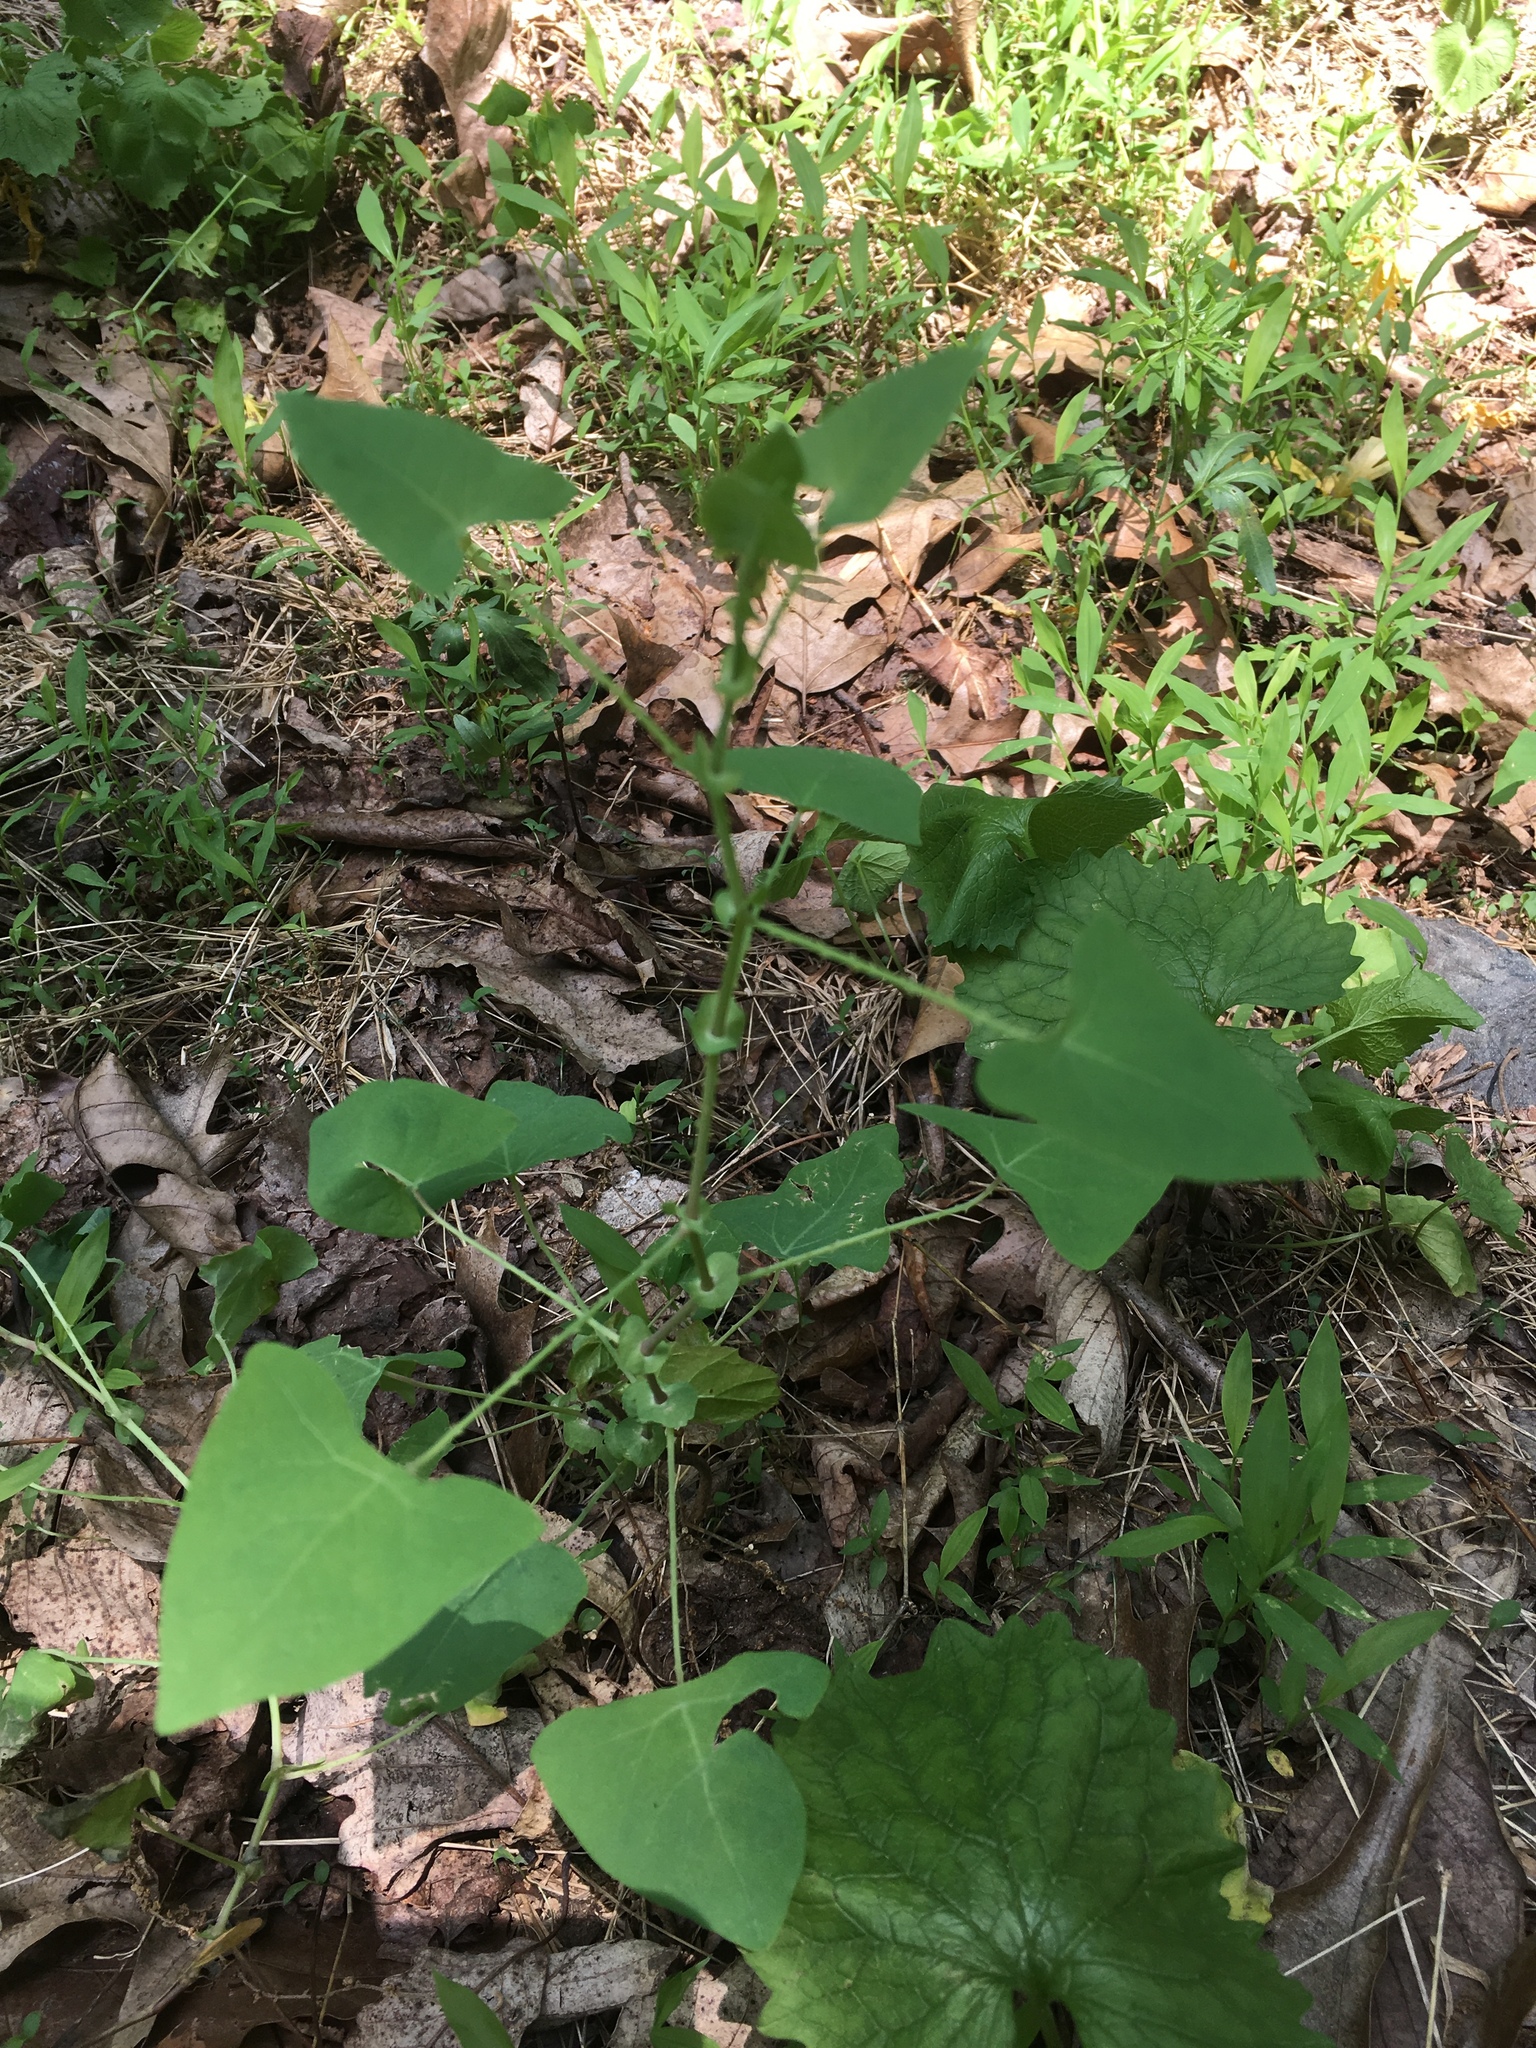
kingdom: Plantae
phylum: Tracheophyta
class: Magnoliopsida
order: Caryophyllales
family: Polygonaceae
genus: Persicaria
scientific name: Persicaria perfoliata
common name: Asiatic tearthumb
